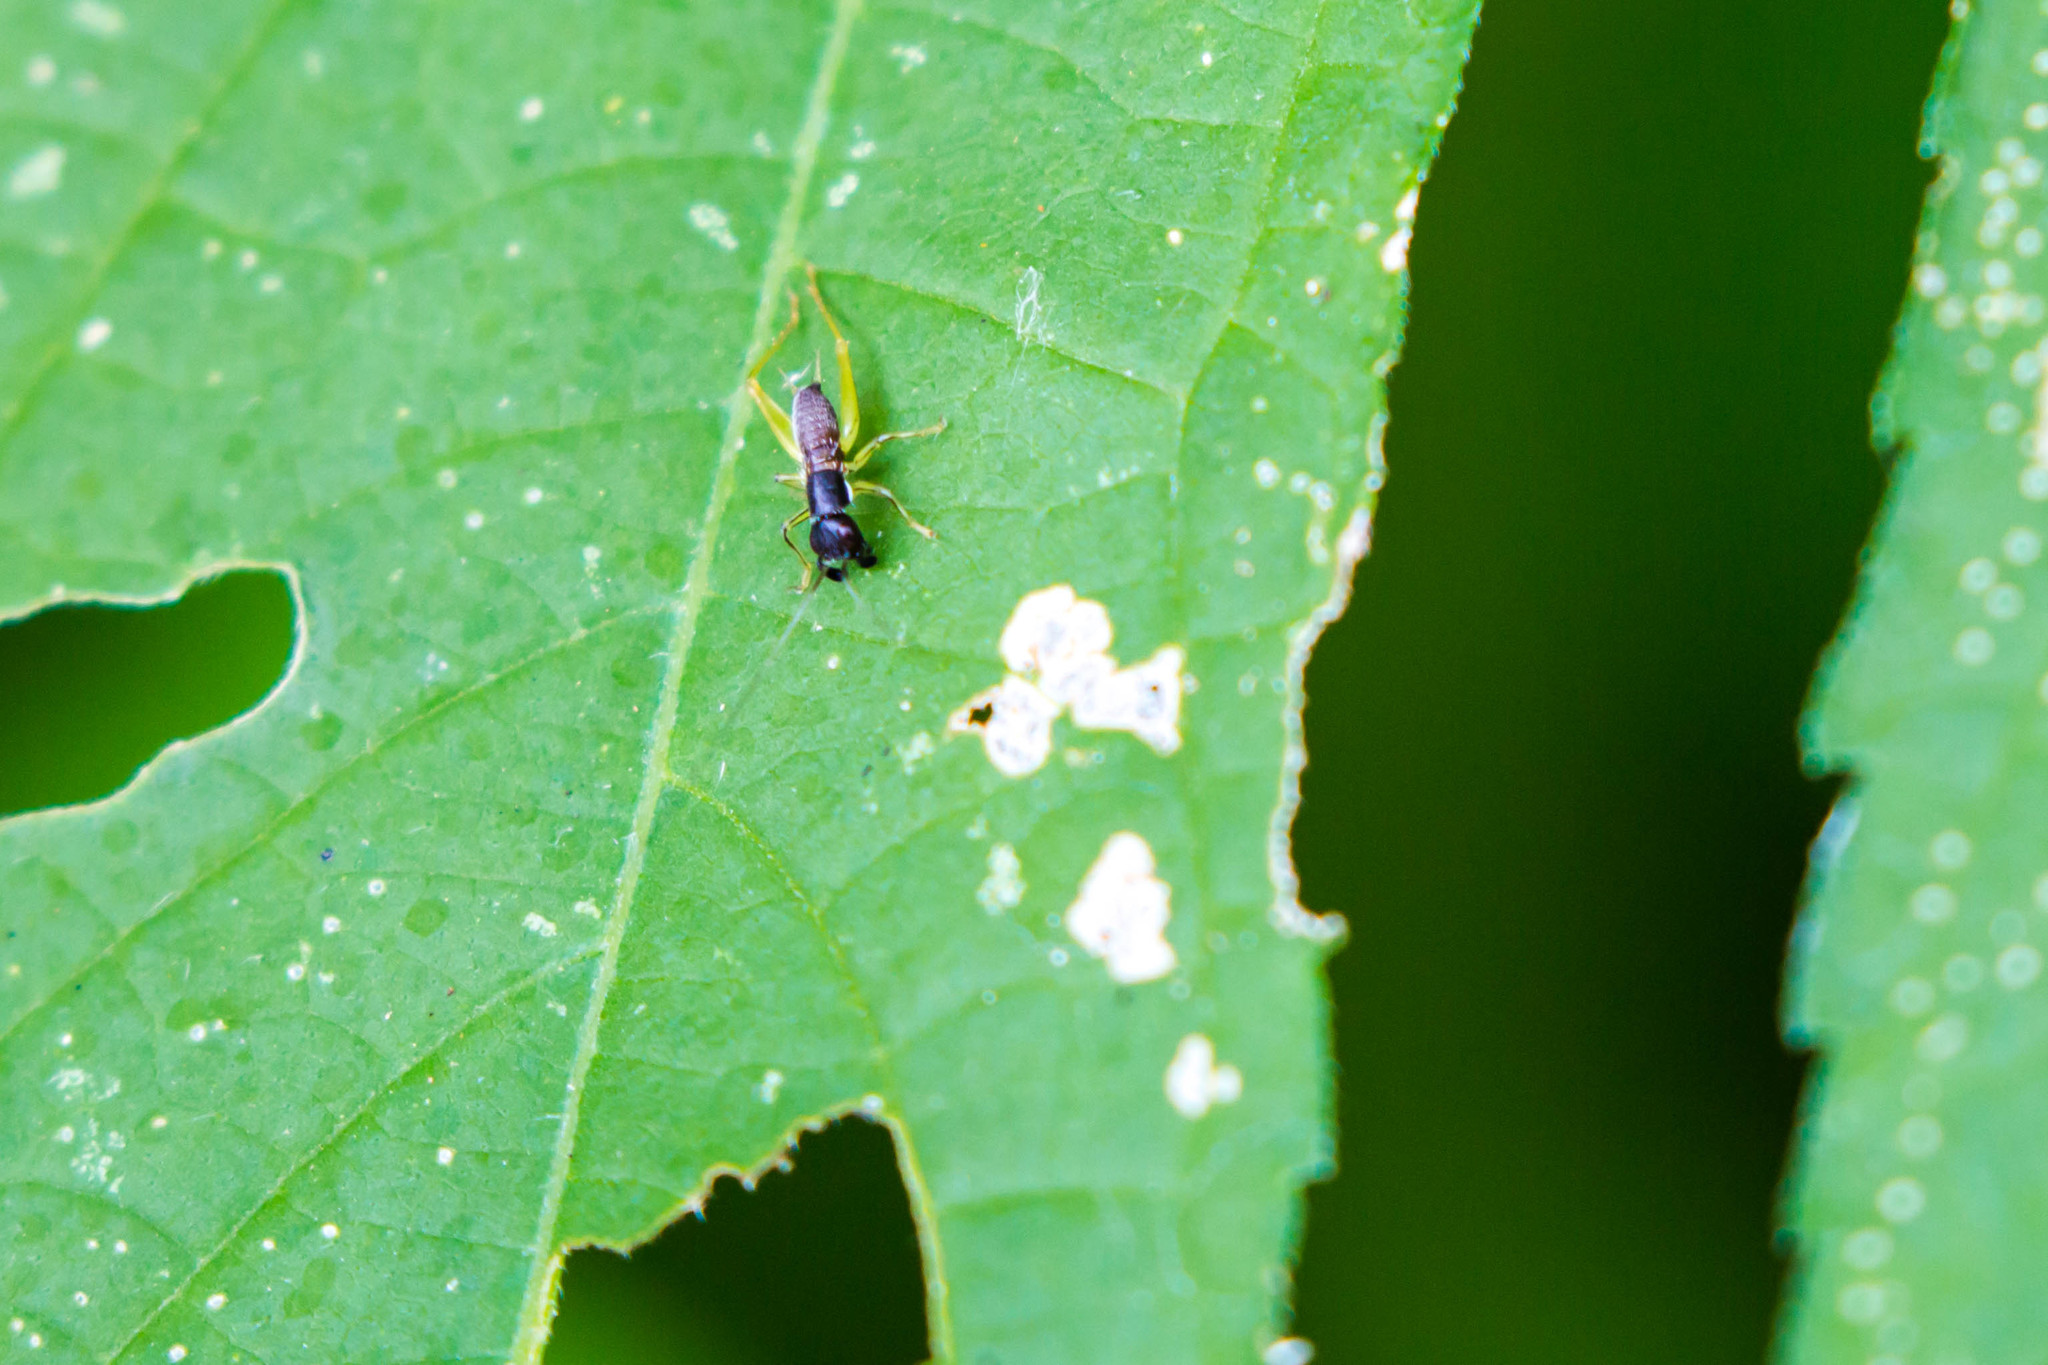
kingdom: Animalia
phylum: Arthropoda
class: Insecta
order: Orthoptera
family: Trigonidiidae
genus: Phyllopalpus
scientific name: Phyllopalpus pulchellus
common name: Handsome trig
